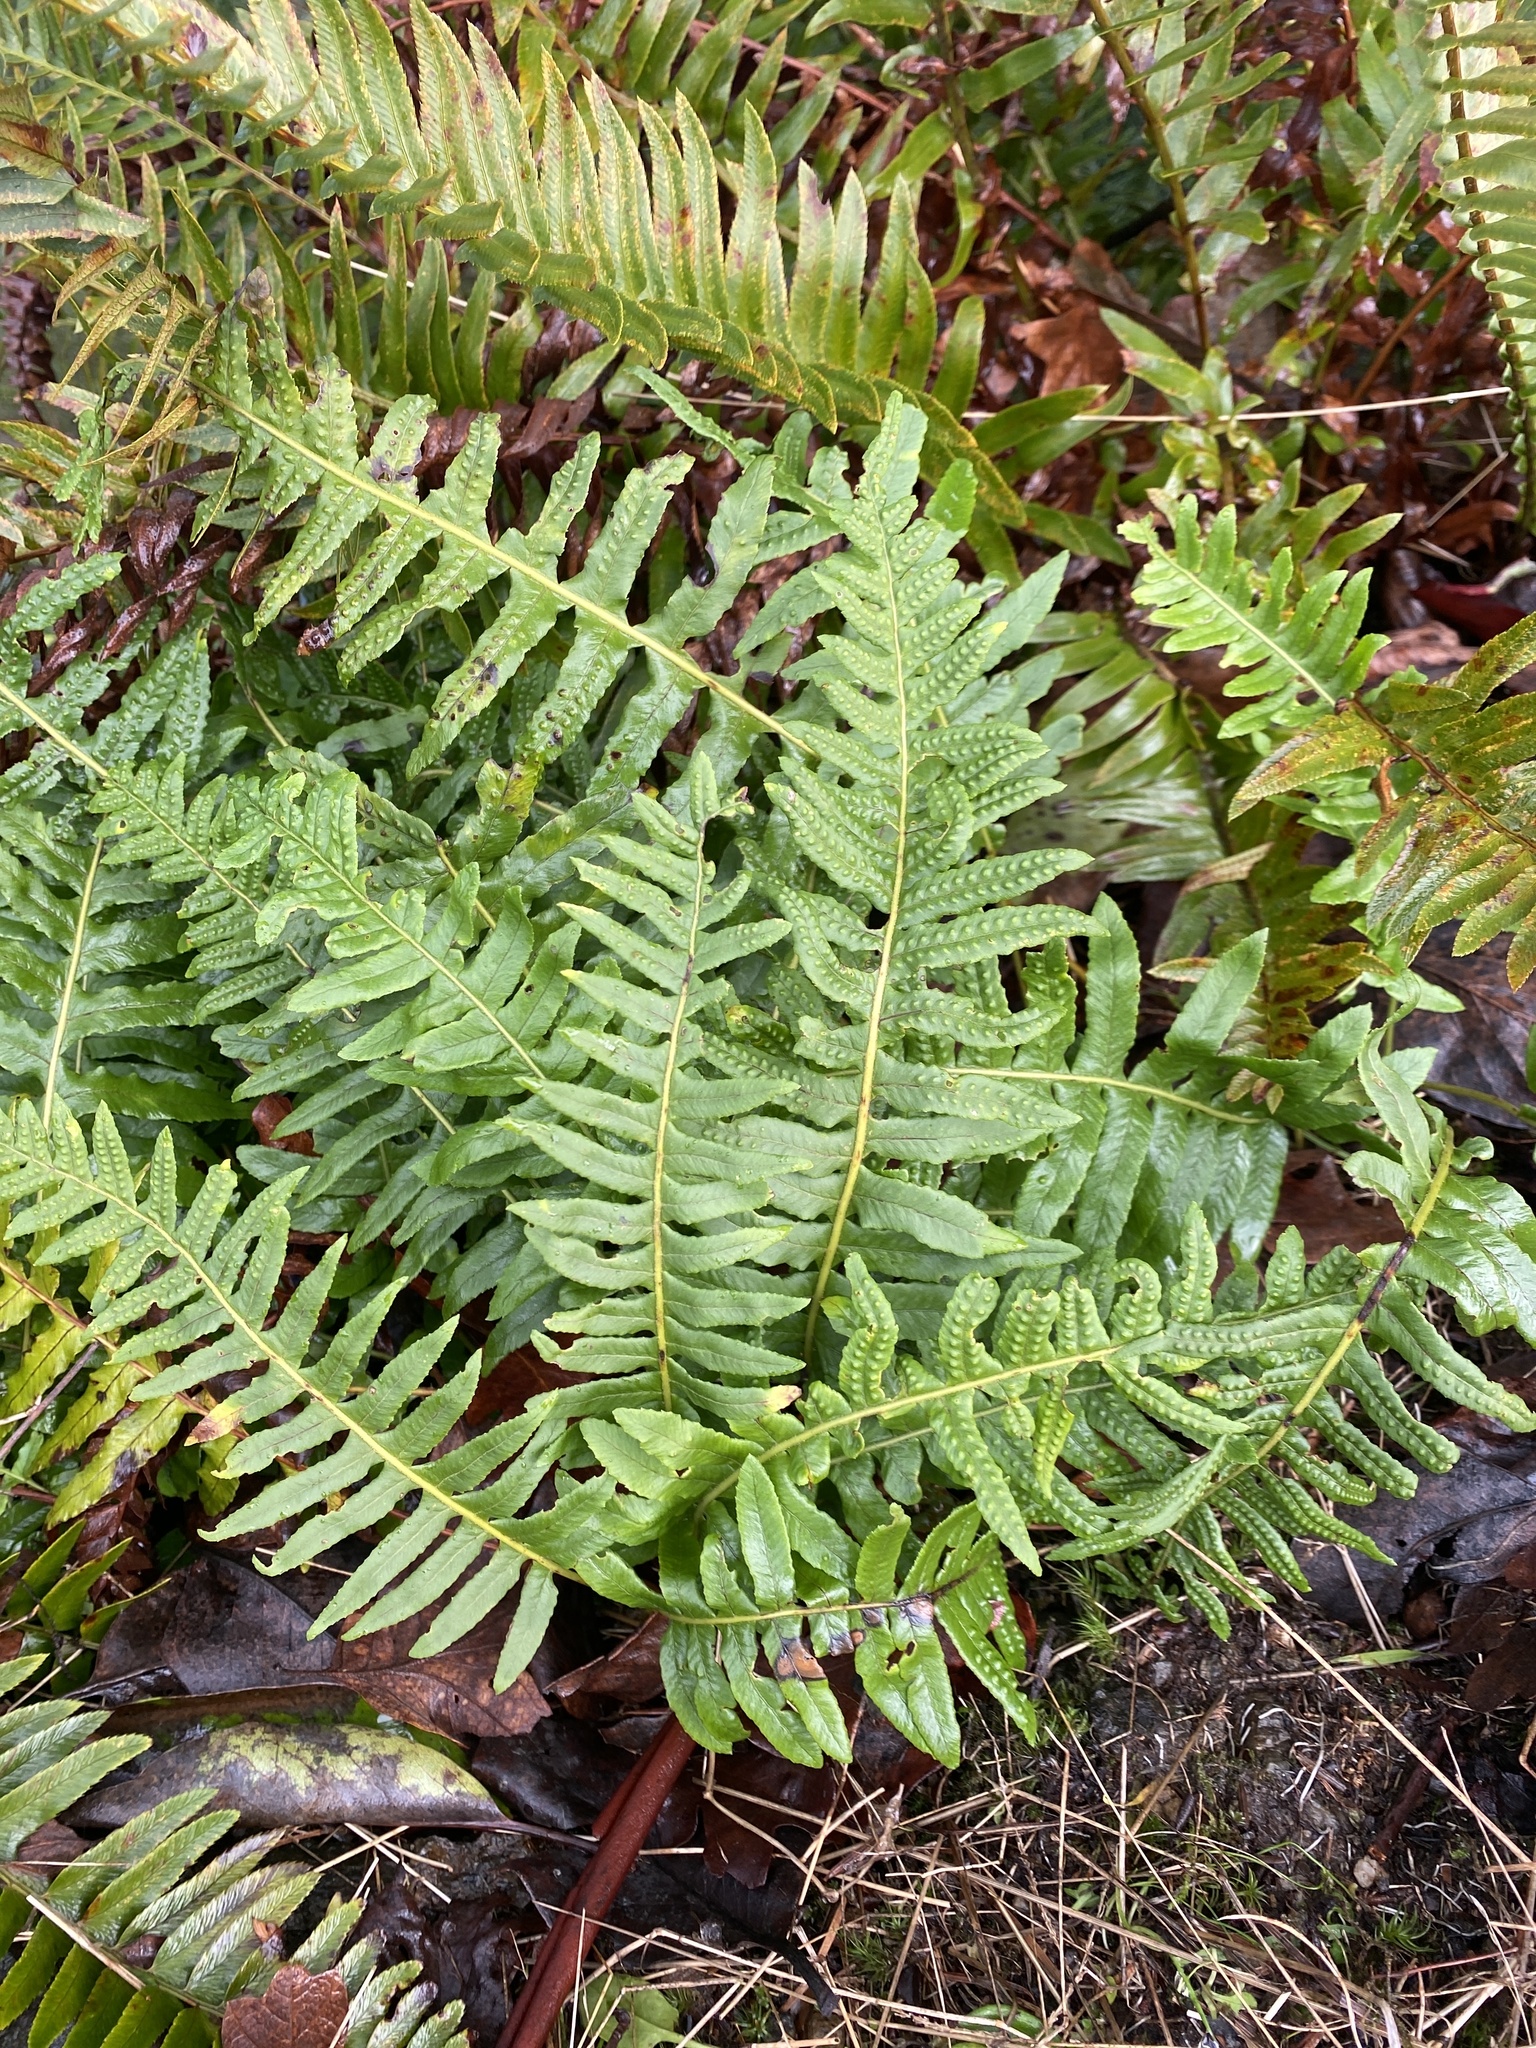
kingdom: Plantae
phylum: Tracheophyta
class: Polypodiopsida
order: Polypodiales
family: Polypodiaceae
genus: Polypodium
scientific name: Polypodium glycyrrhiza
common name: Licorice fern
